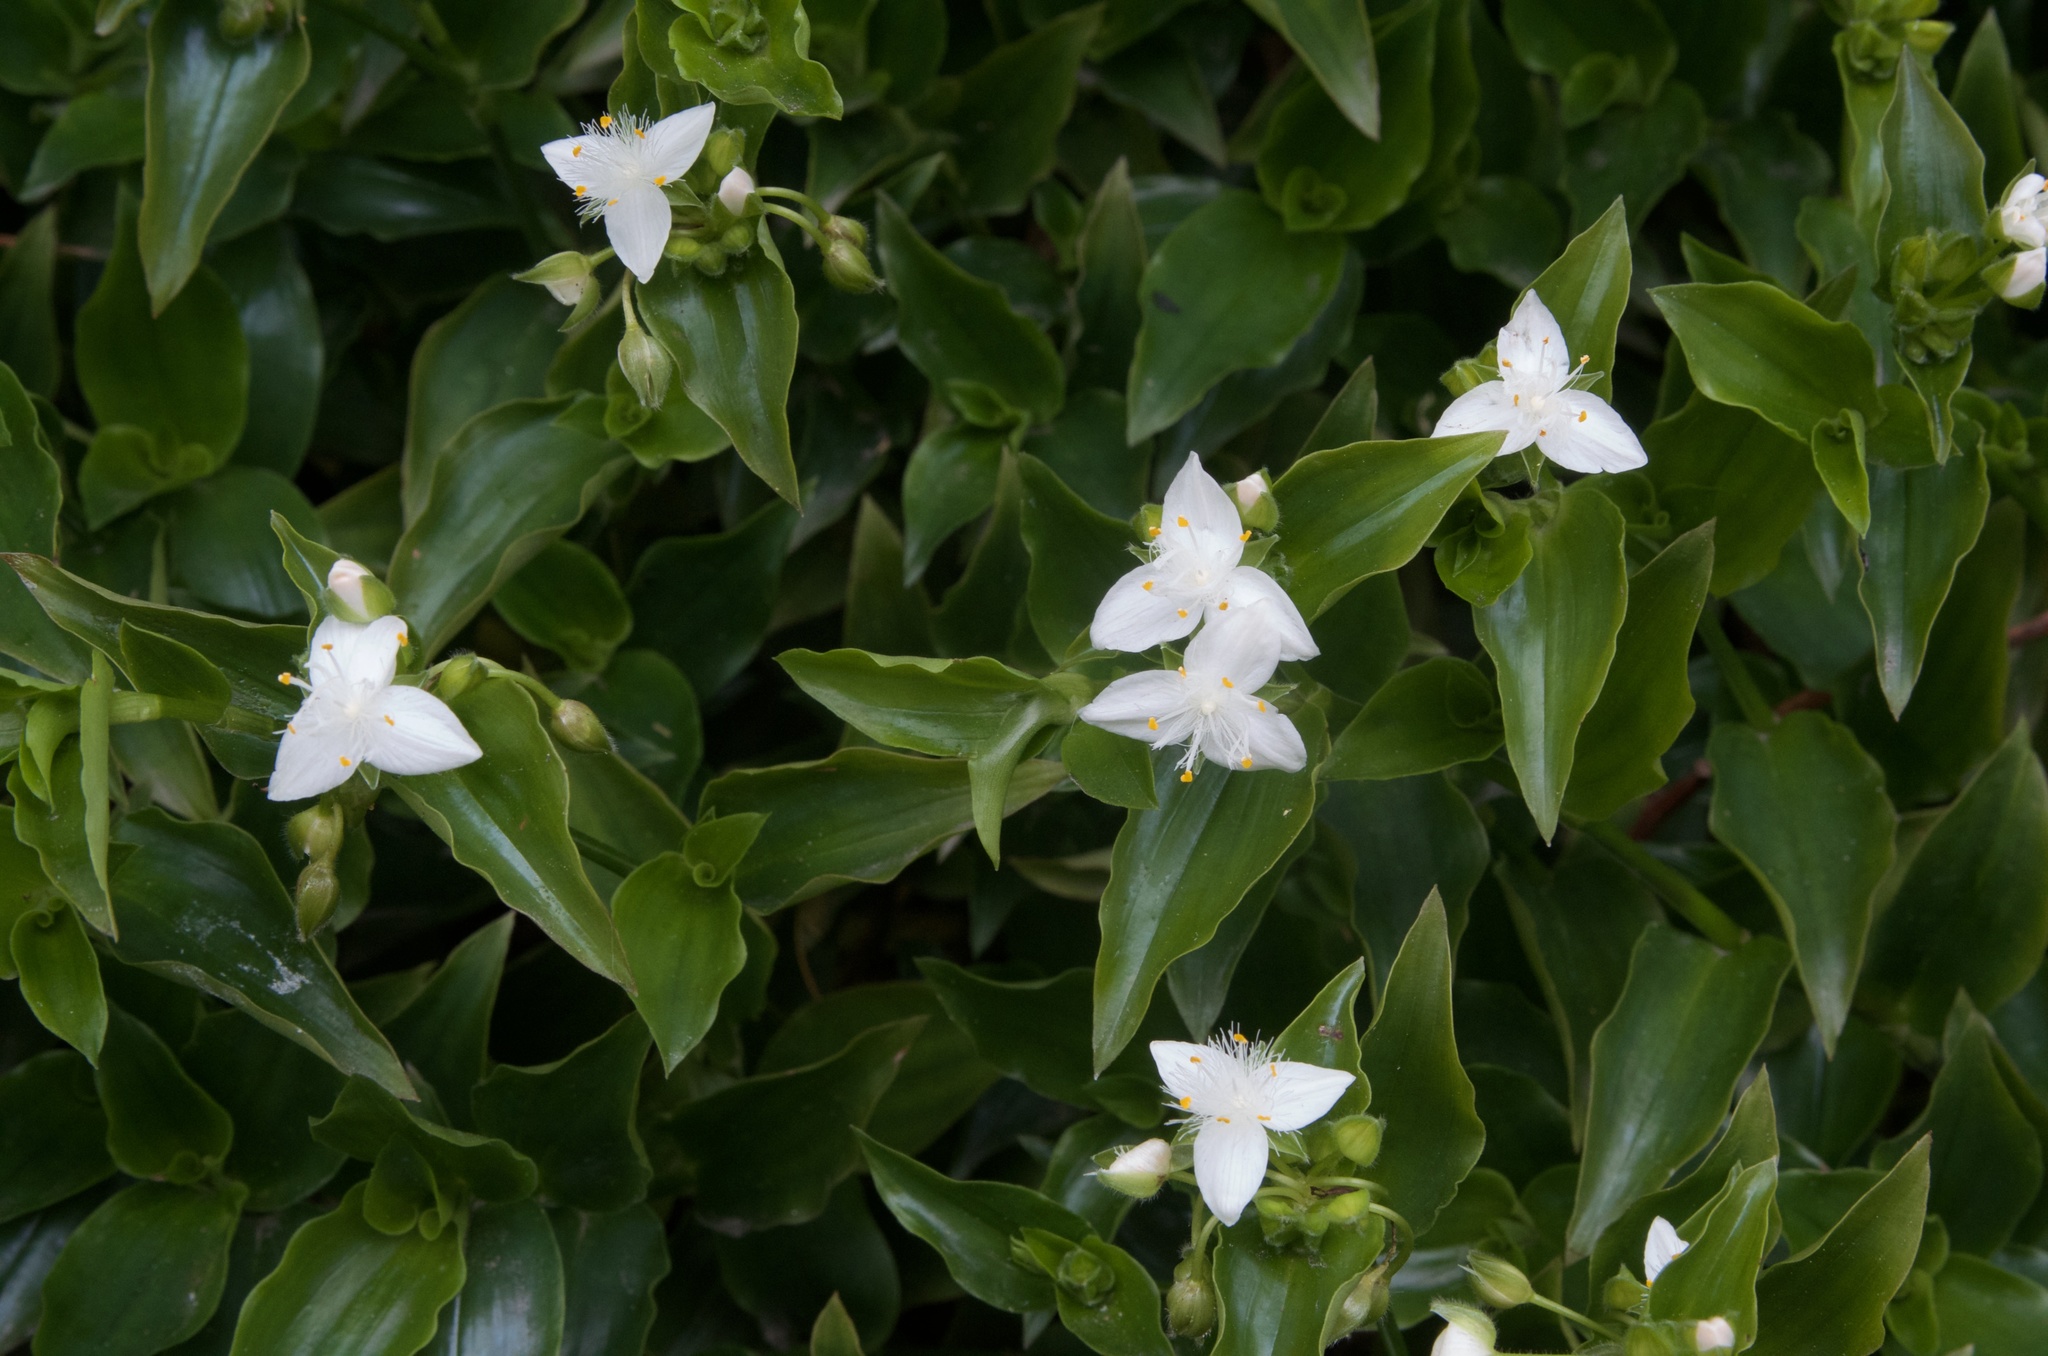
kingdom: Plantae
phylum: Tracheophyta
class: Liliopsida
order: Commelinales
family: Commelinaceae
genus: Tradescantia
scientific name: Tradescantia fluminensis
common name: Wandering-jew
